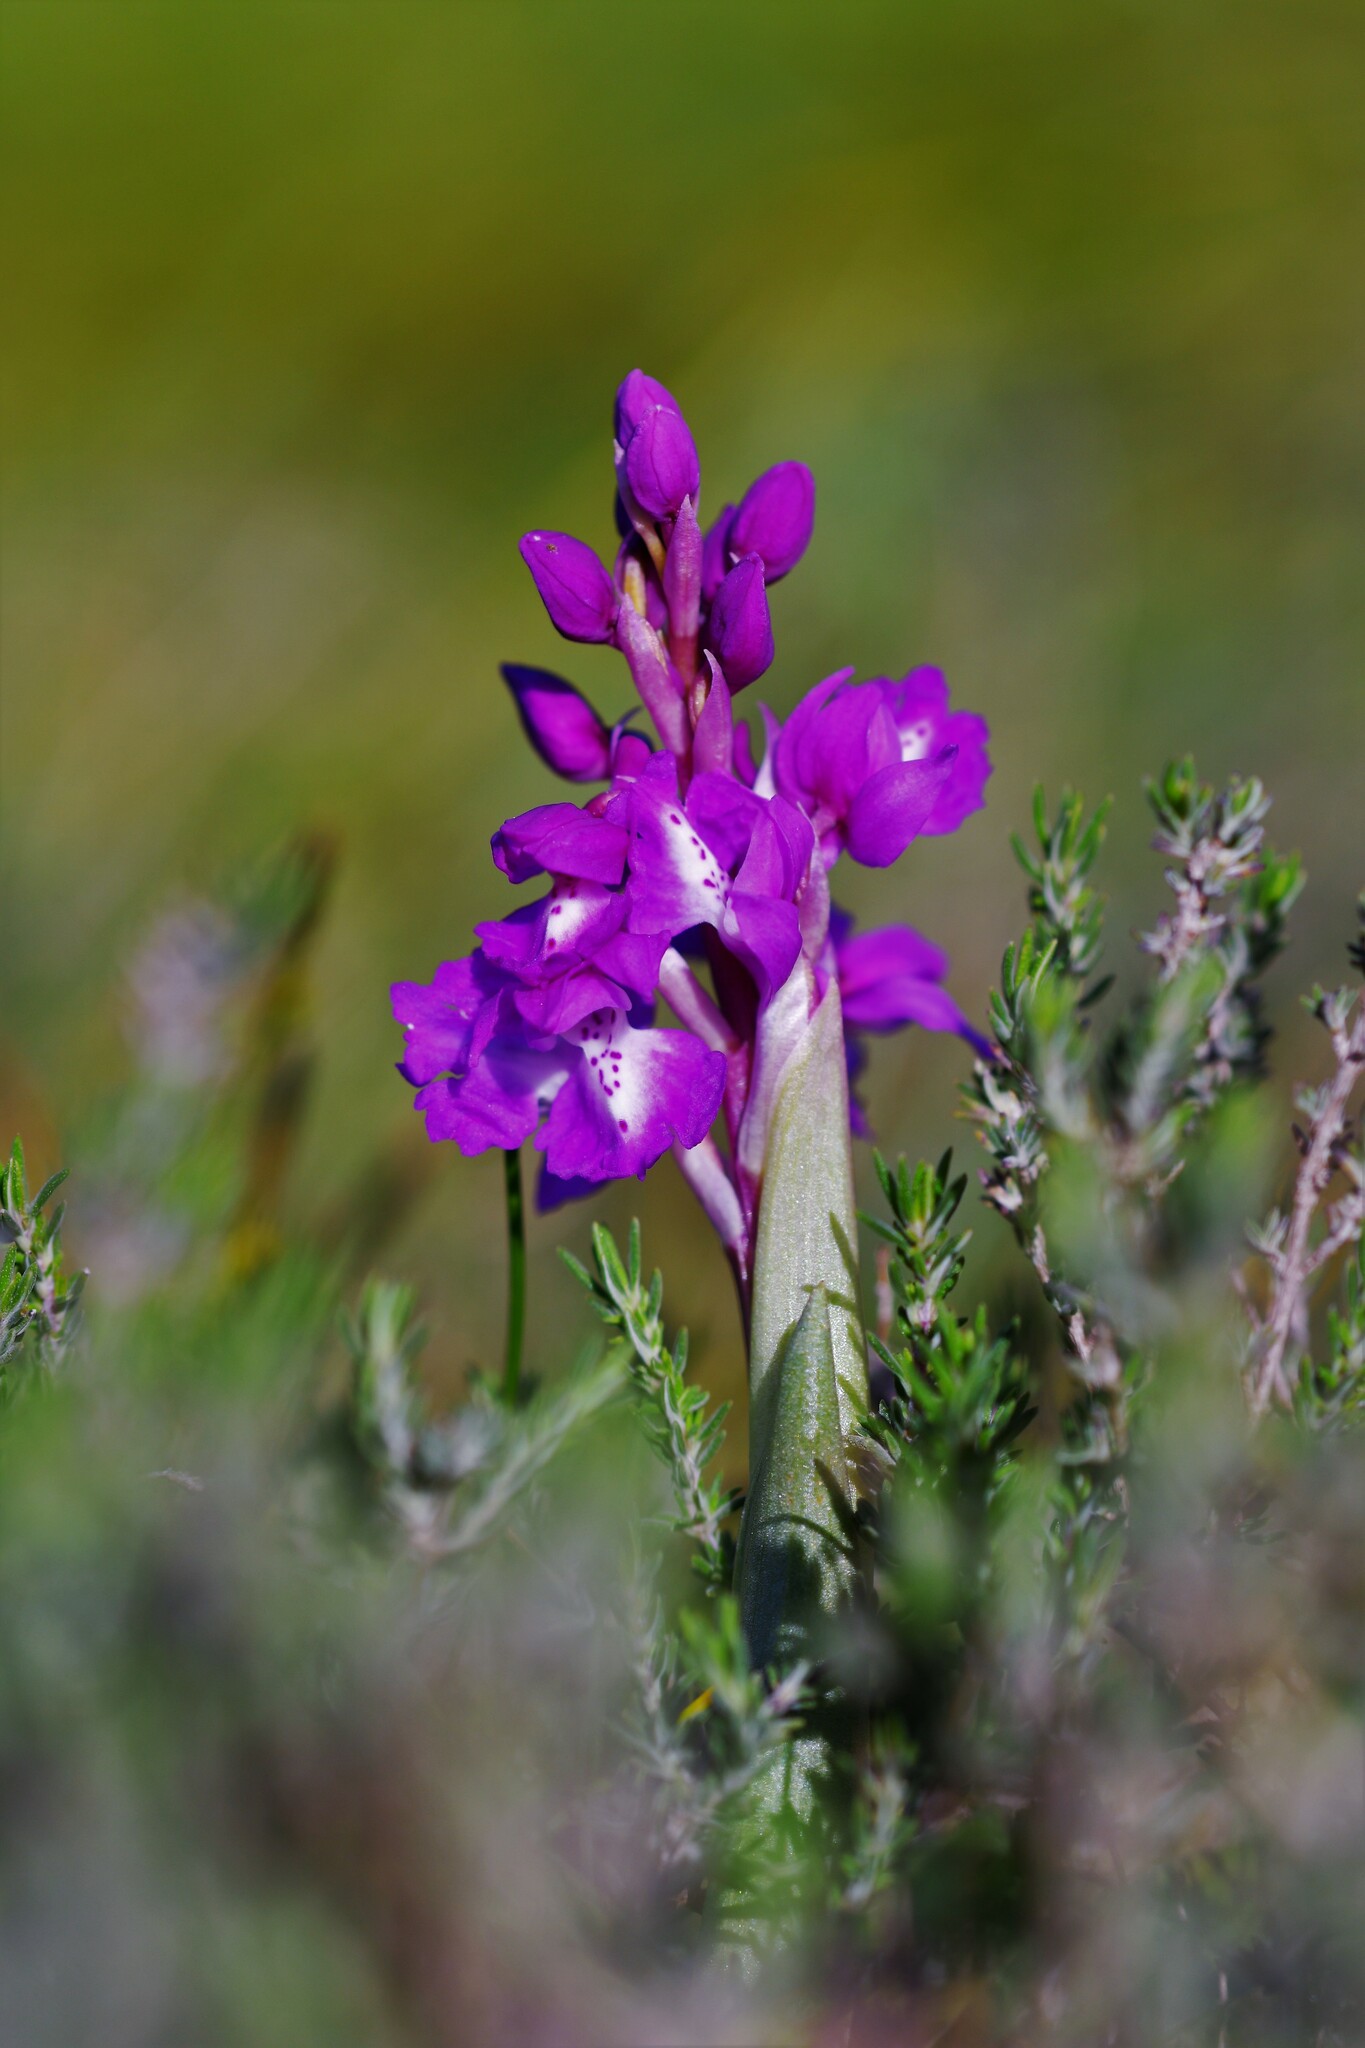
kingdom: Plantae
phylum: Tracheophyta
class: Liliopsida
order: Asparagales
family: Orchidaceae
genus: Orchis
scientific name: Orchis mascula
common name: Early-purple orchid
